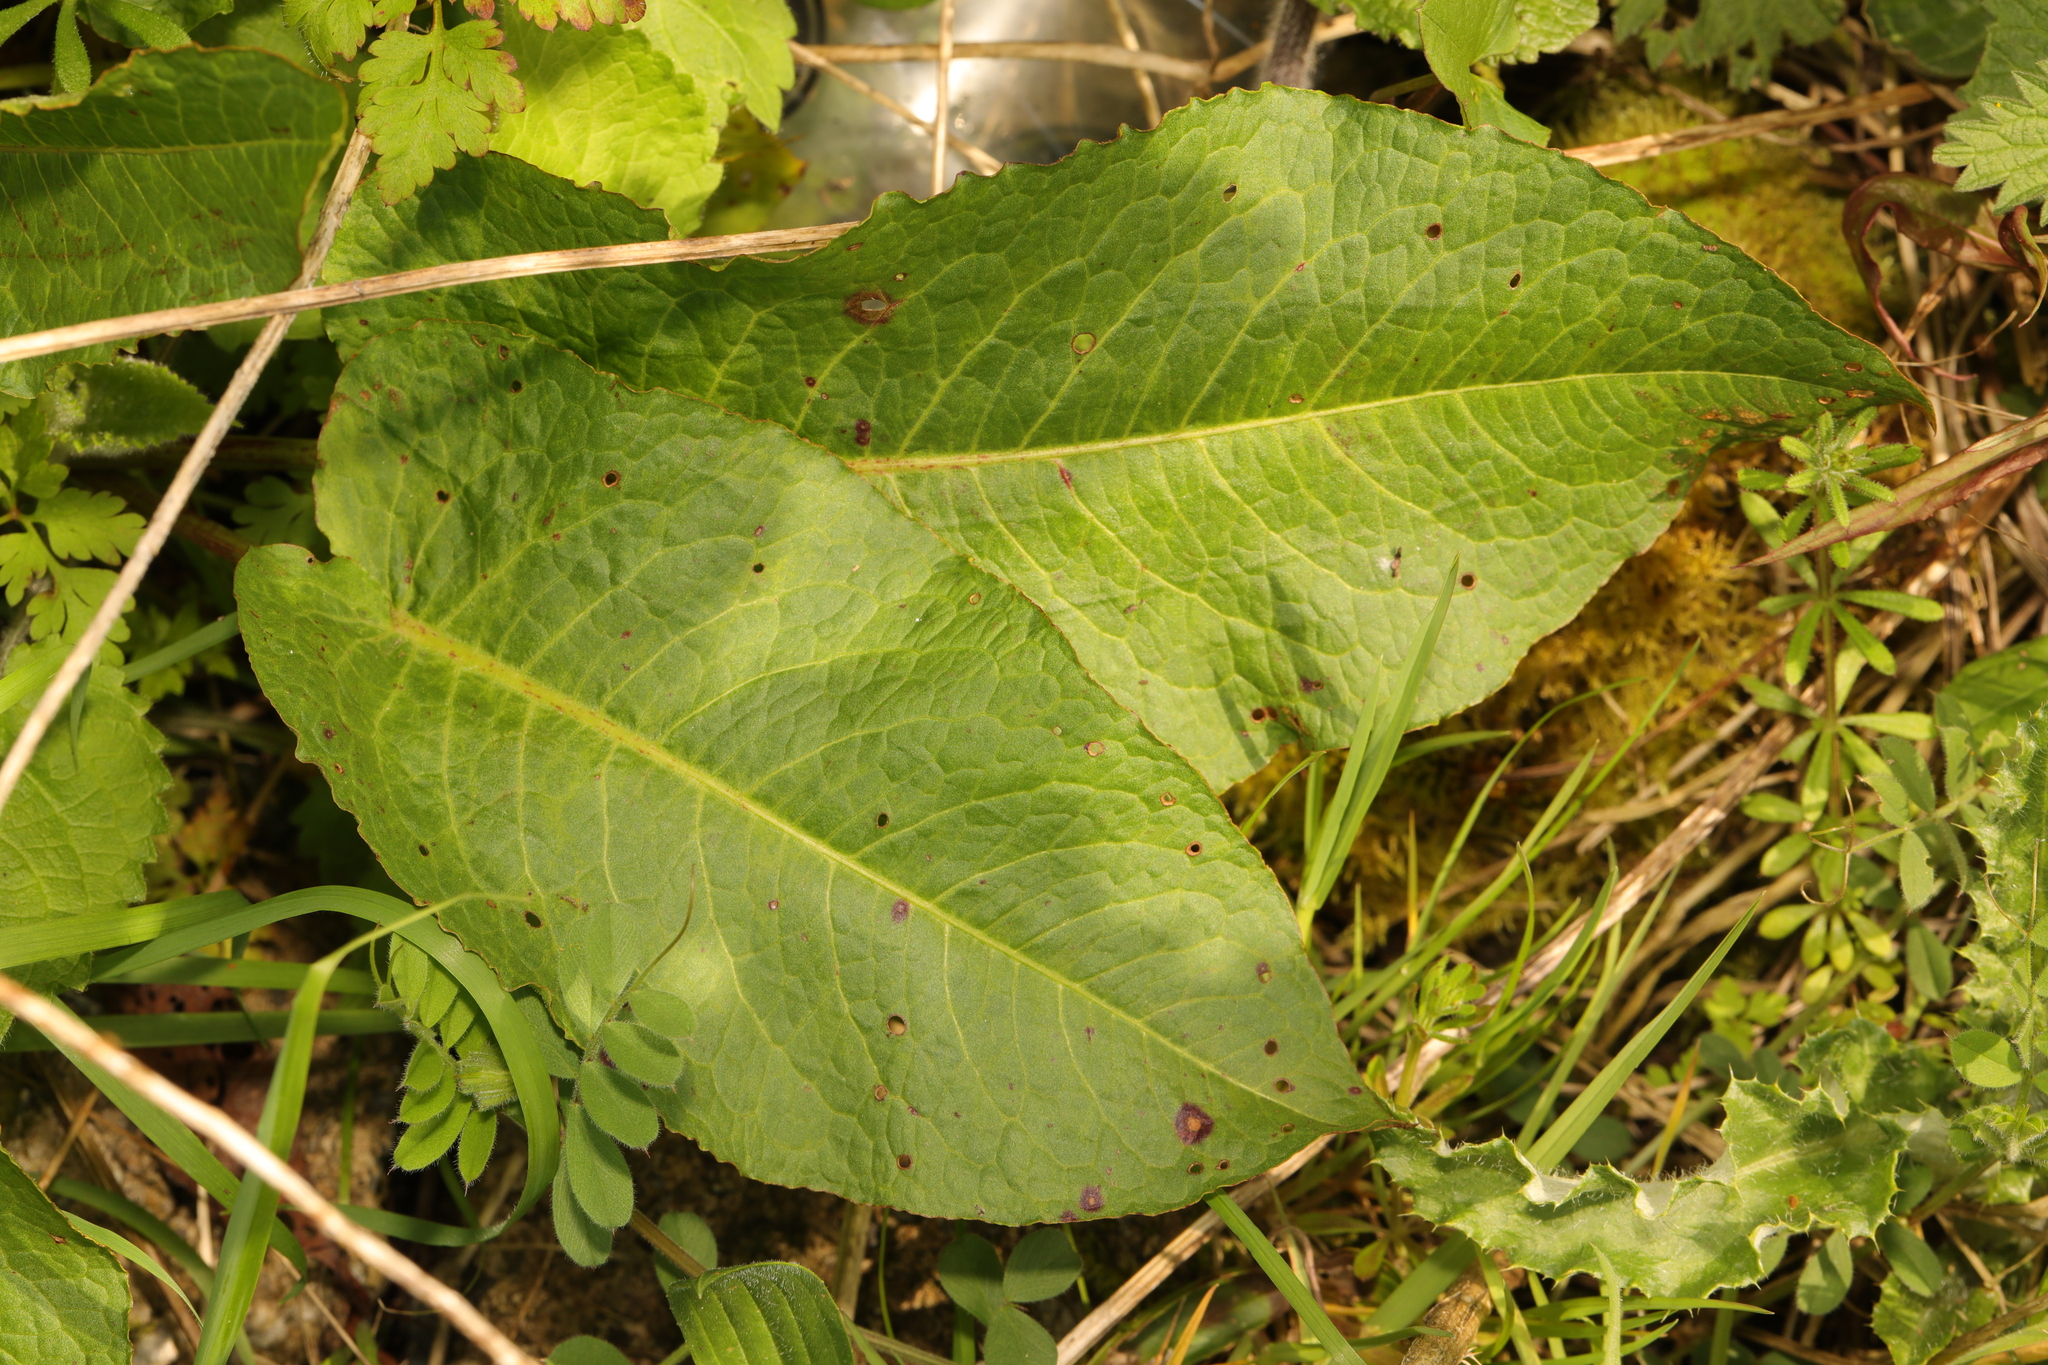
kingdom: Plantae
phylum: Tracheophyta
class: Magnoliopsida
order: Caryophyllales
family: Polygonaceae
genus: Rumex
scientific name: Rumex obtusifolius
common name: Bitter dock
